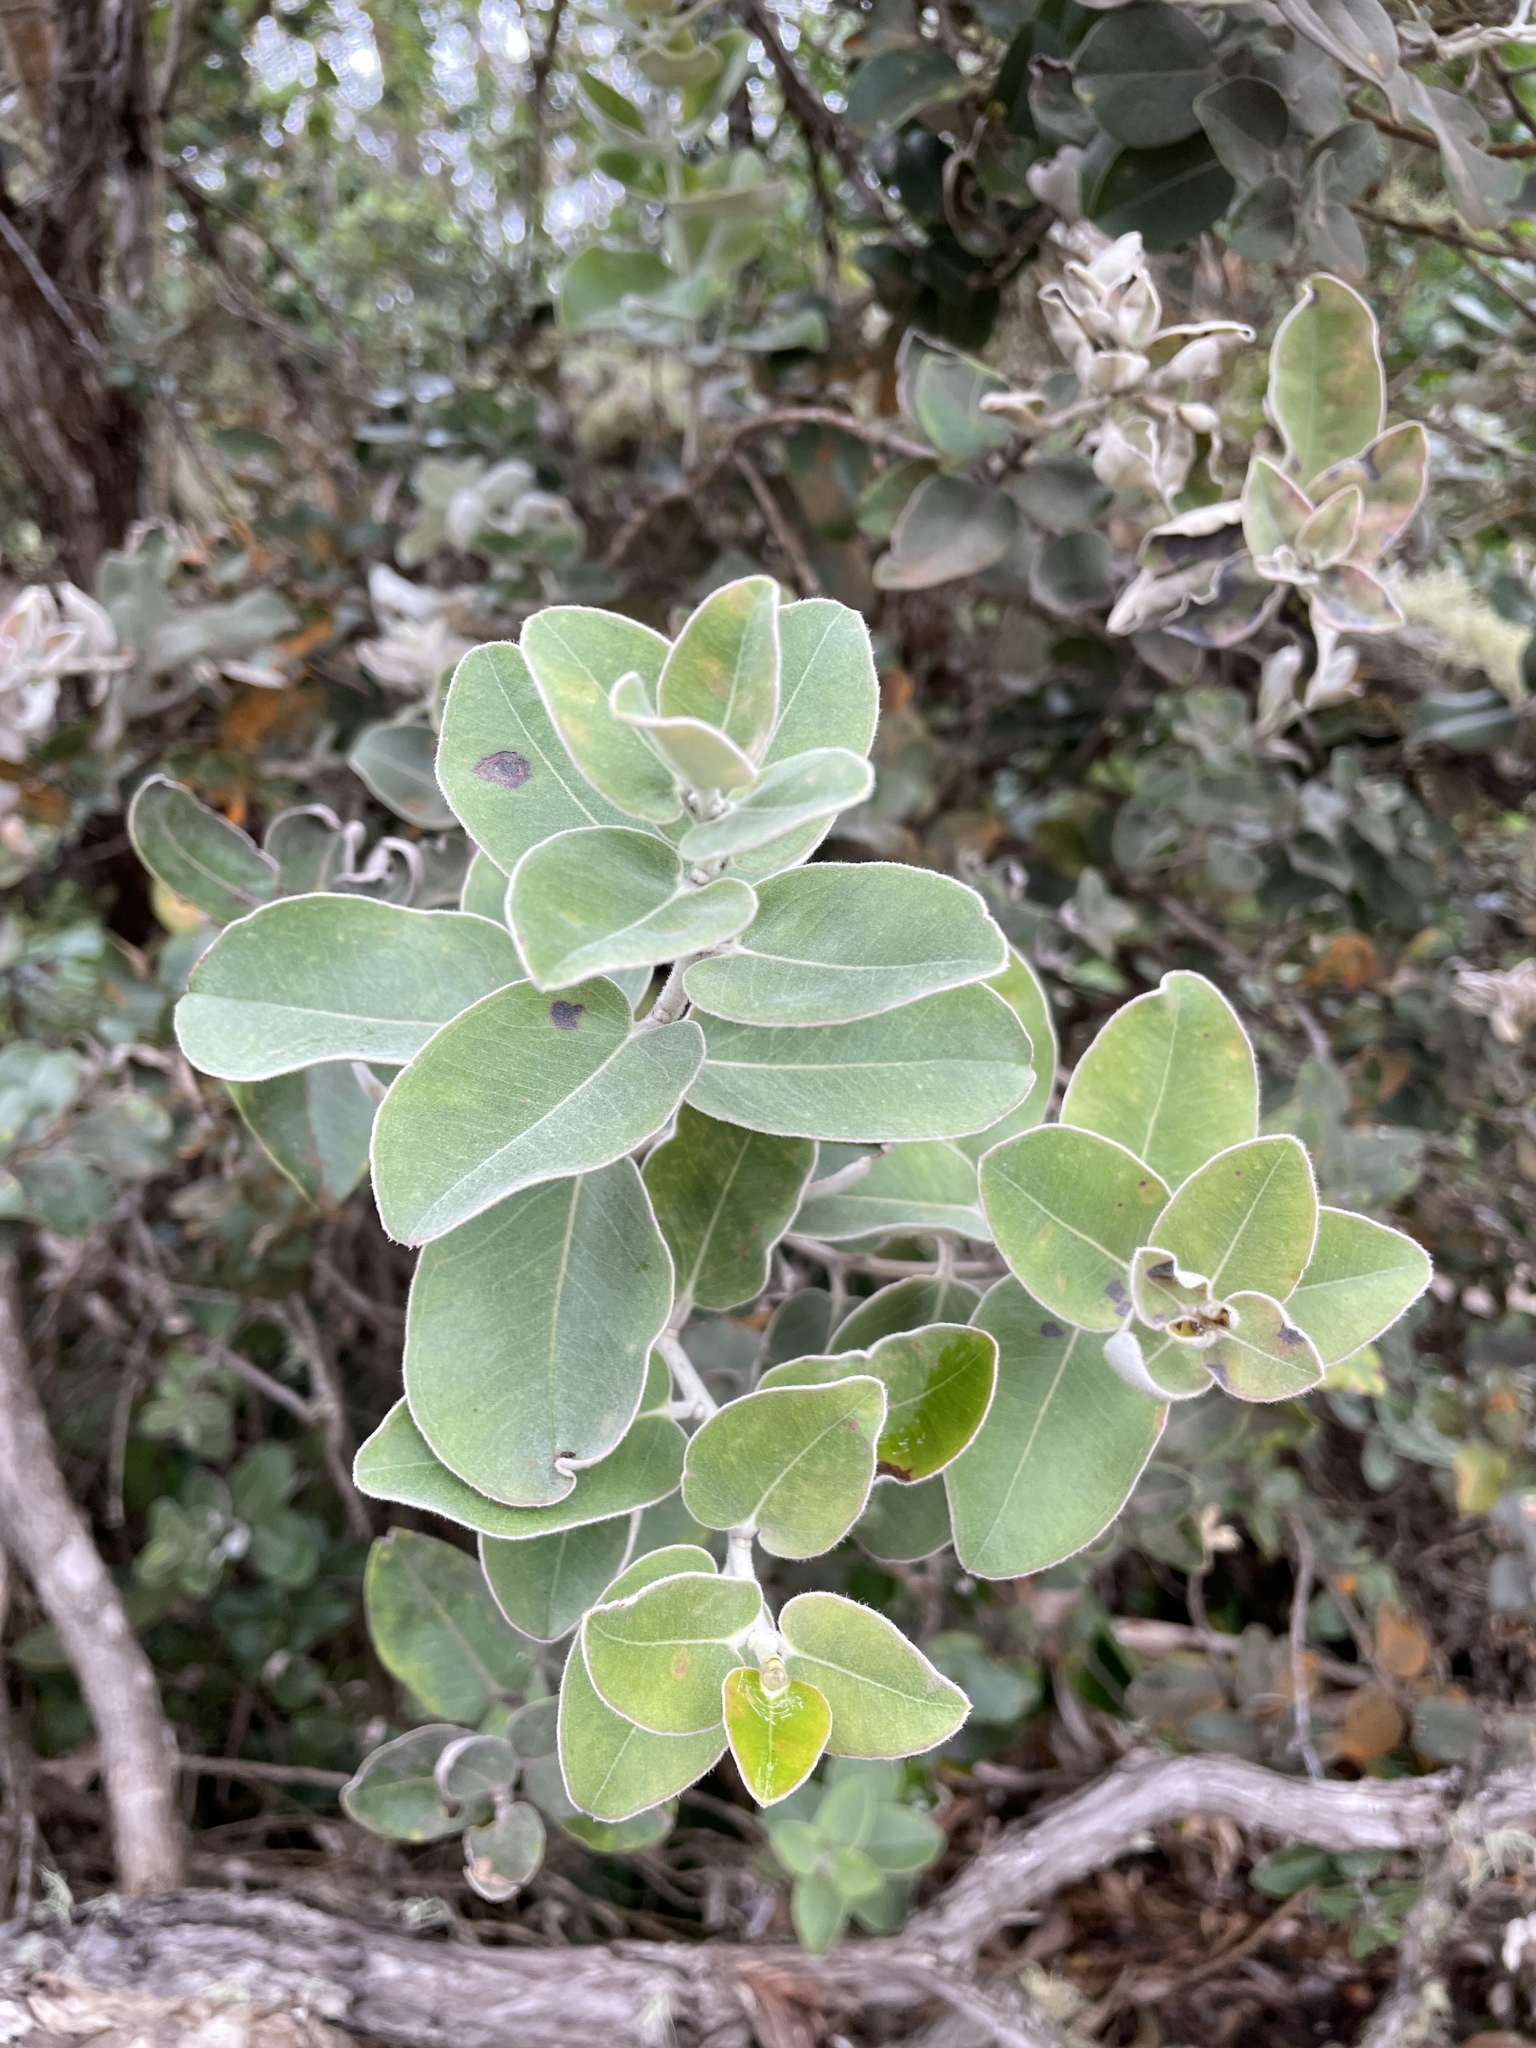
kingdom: Plantae
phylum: Tracheophyta
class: Magnoliopsida
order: Myrtales
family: Myrtaceae
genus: Metrosideros
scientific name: Metrosideros polymorpha
